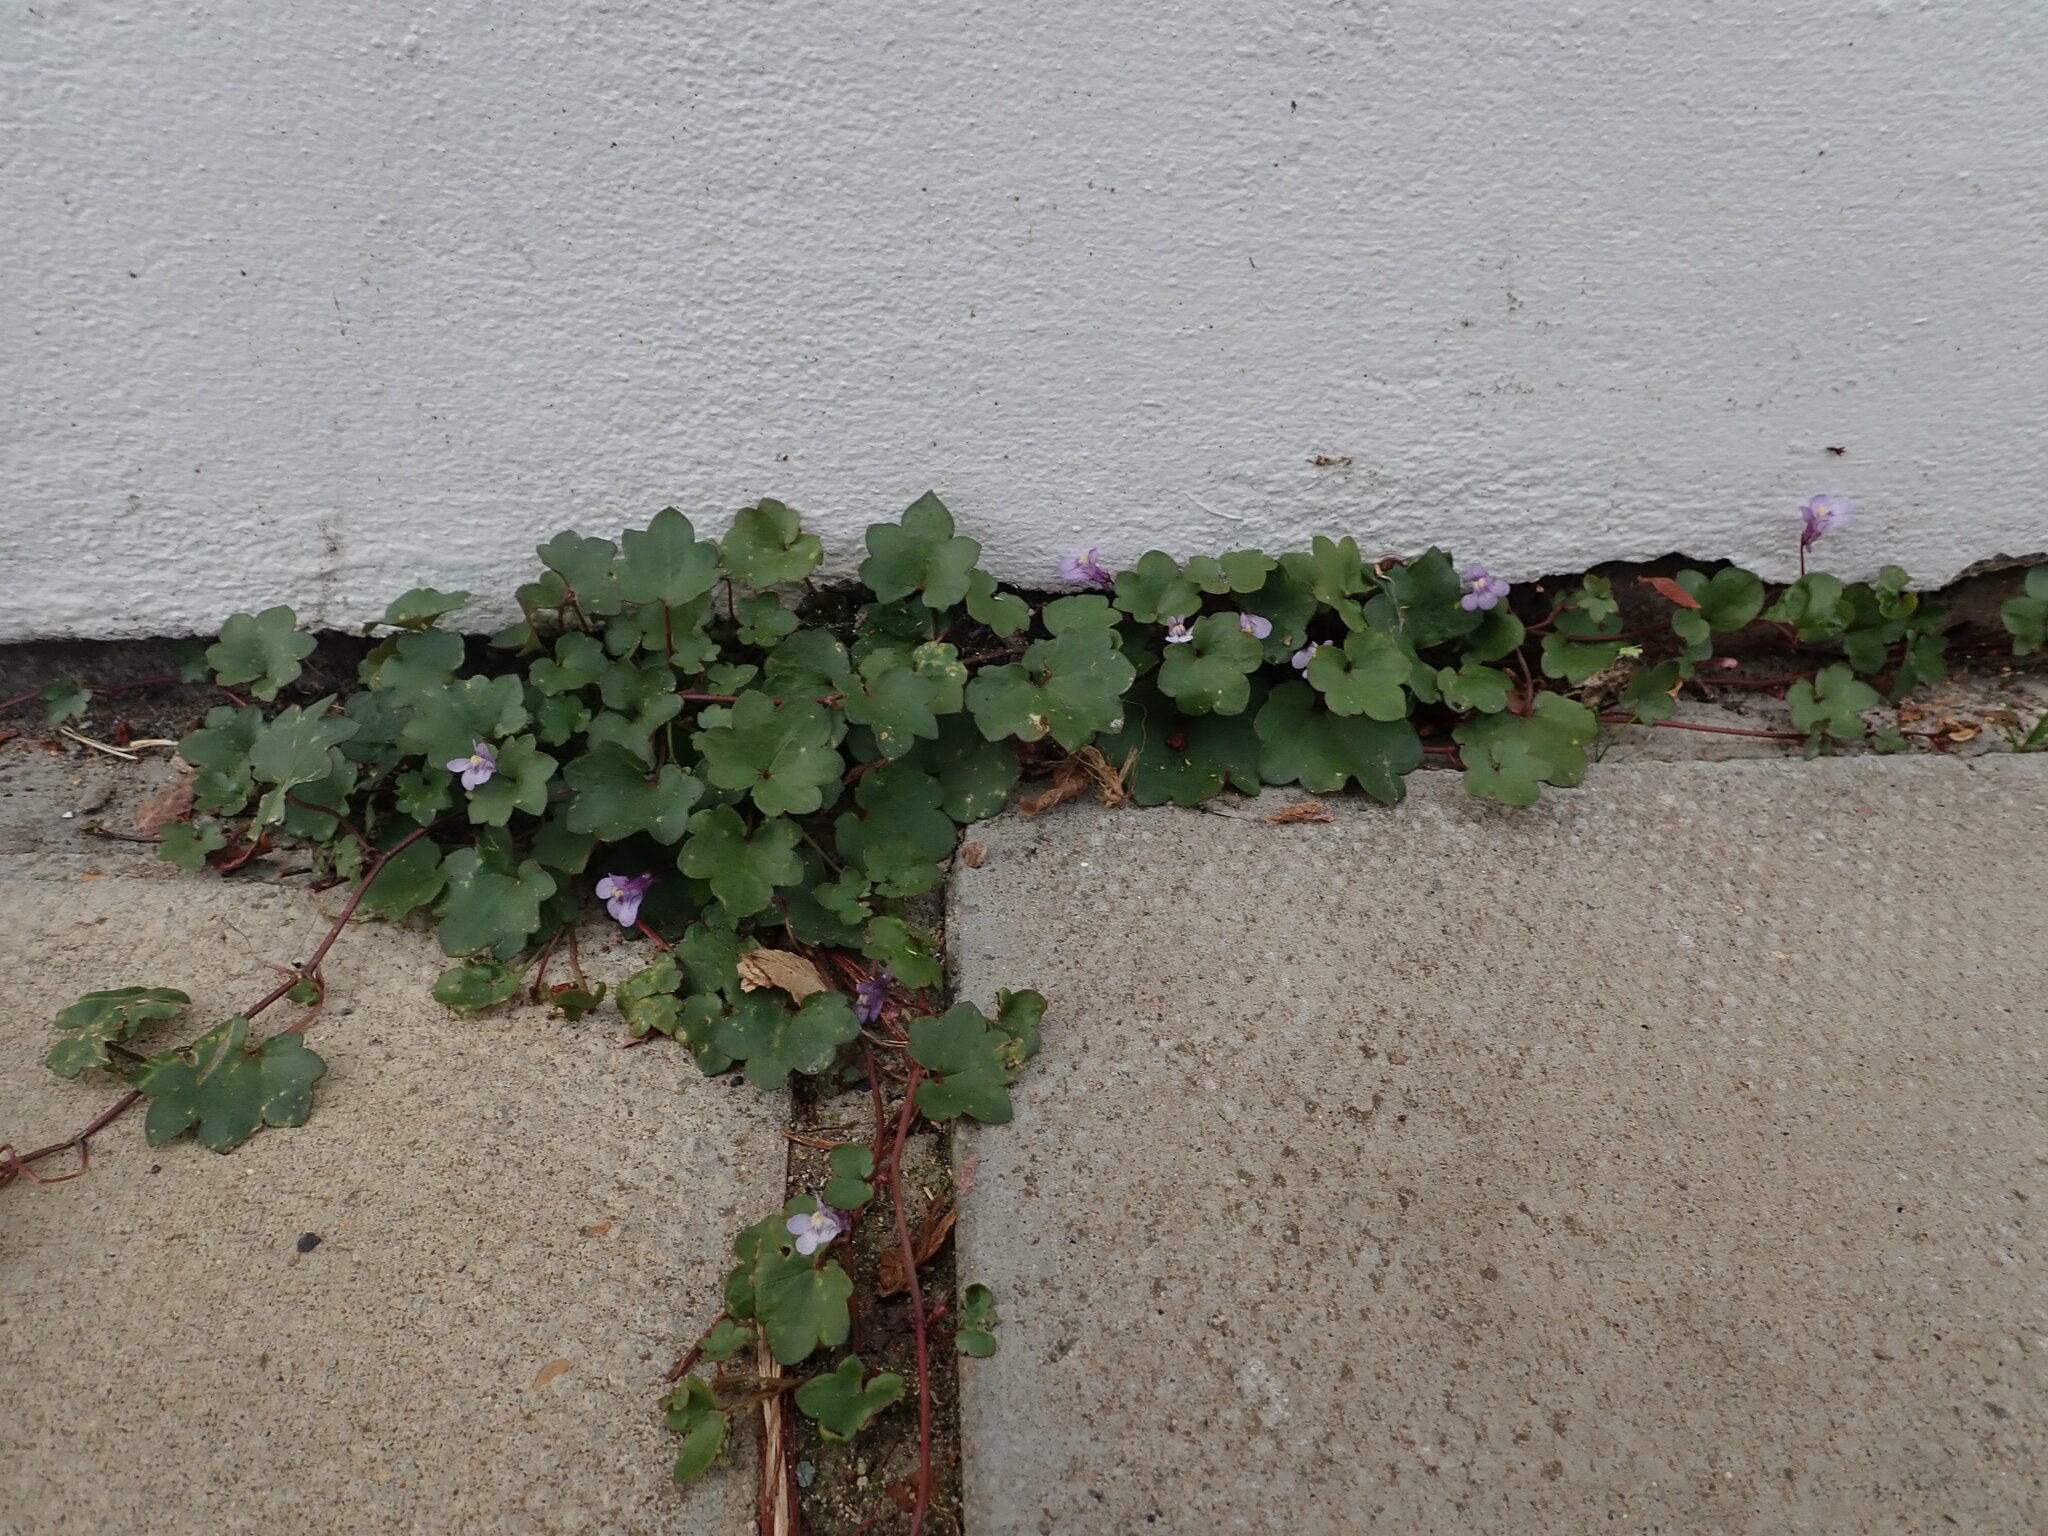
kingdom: Plantae
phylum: Tracheophyta
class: Magnoliopsida
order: Lamiales
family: Plantaginaceae
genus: Cymbalaria
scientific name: Cymbalaria muralis
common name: Ivy-leaved toadflax
